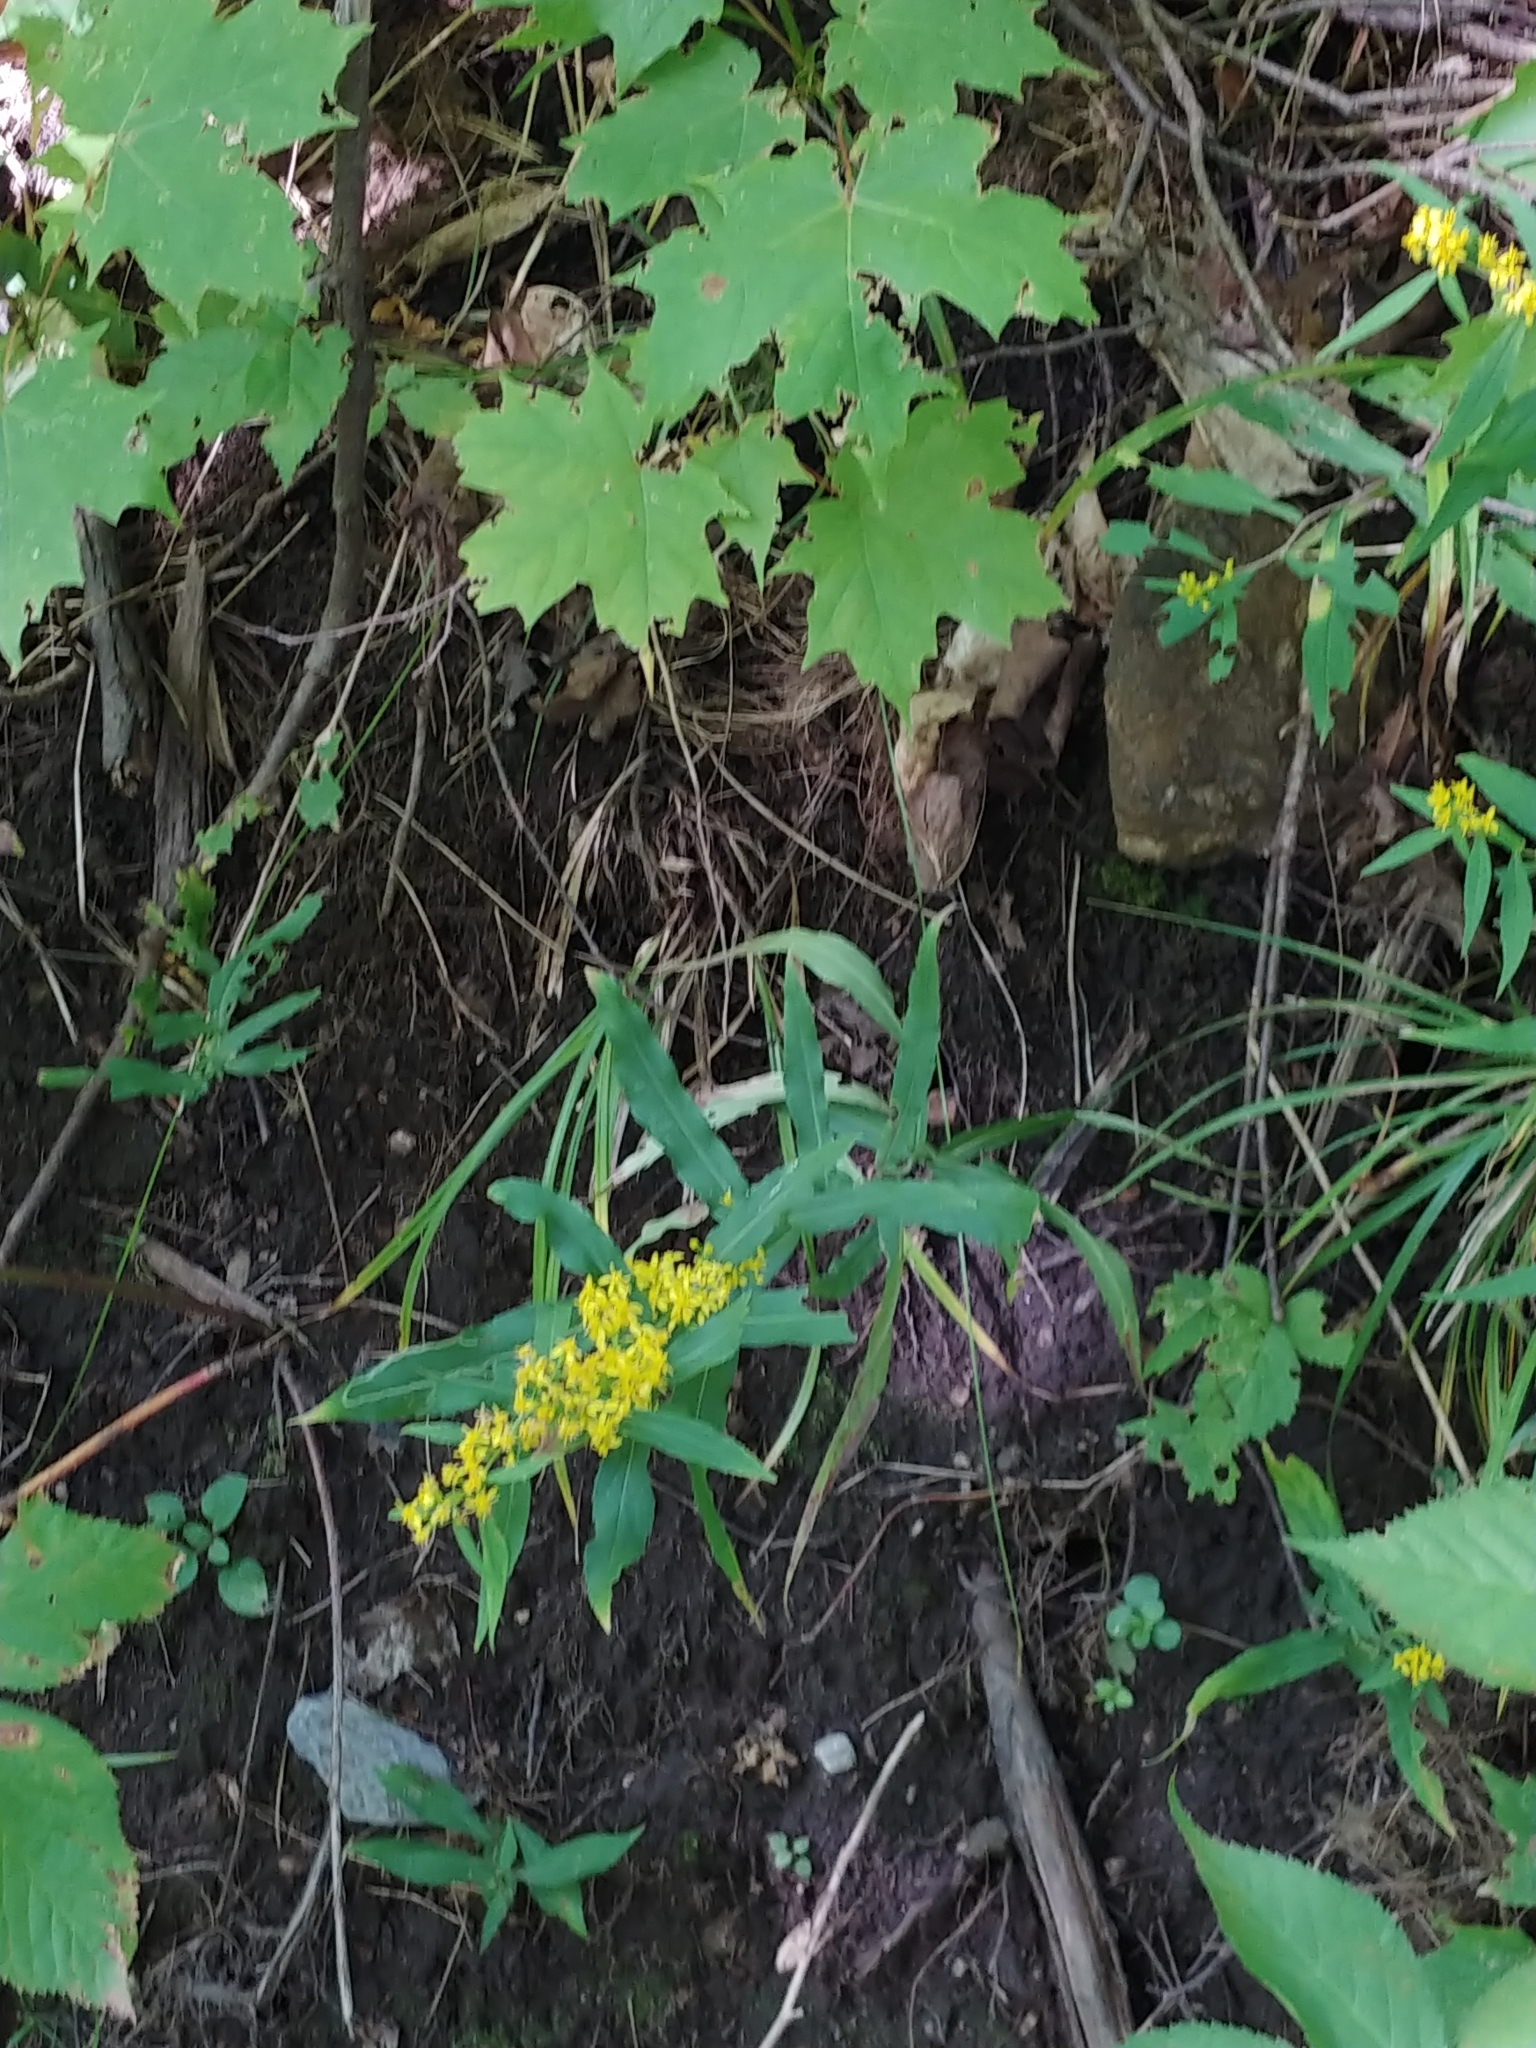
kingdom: Plantae
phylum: Tracheophyta
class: Magnoliopsida
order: Asterales
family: Asteraceae
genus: Solidago
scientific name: Solidago caesia
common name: Woodland goldenrod
